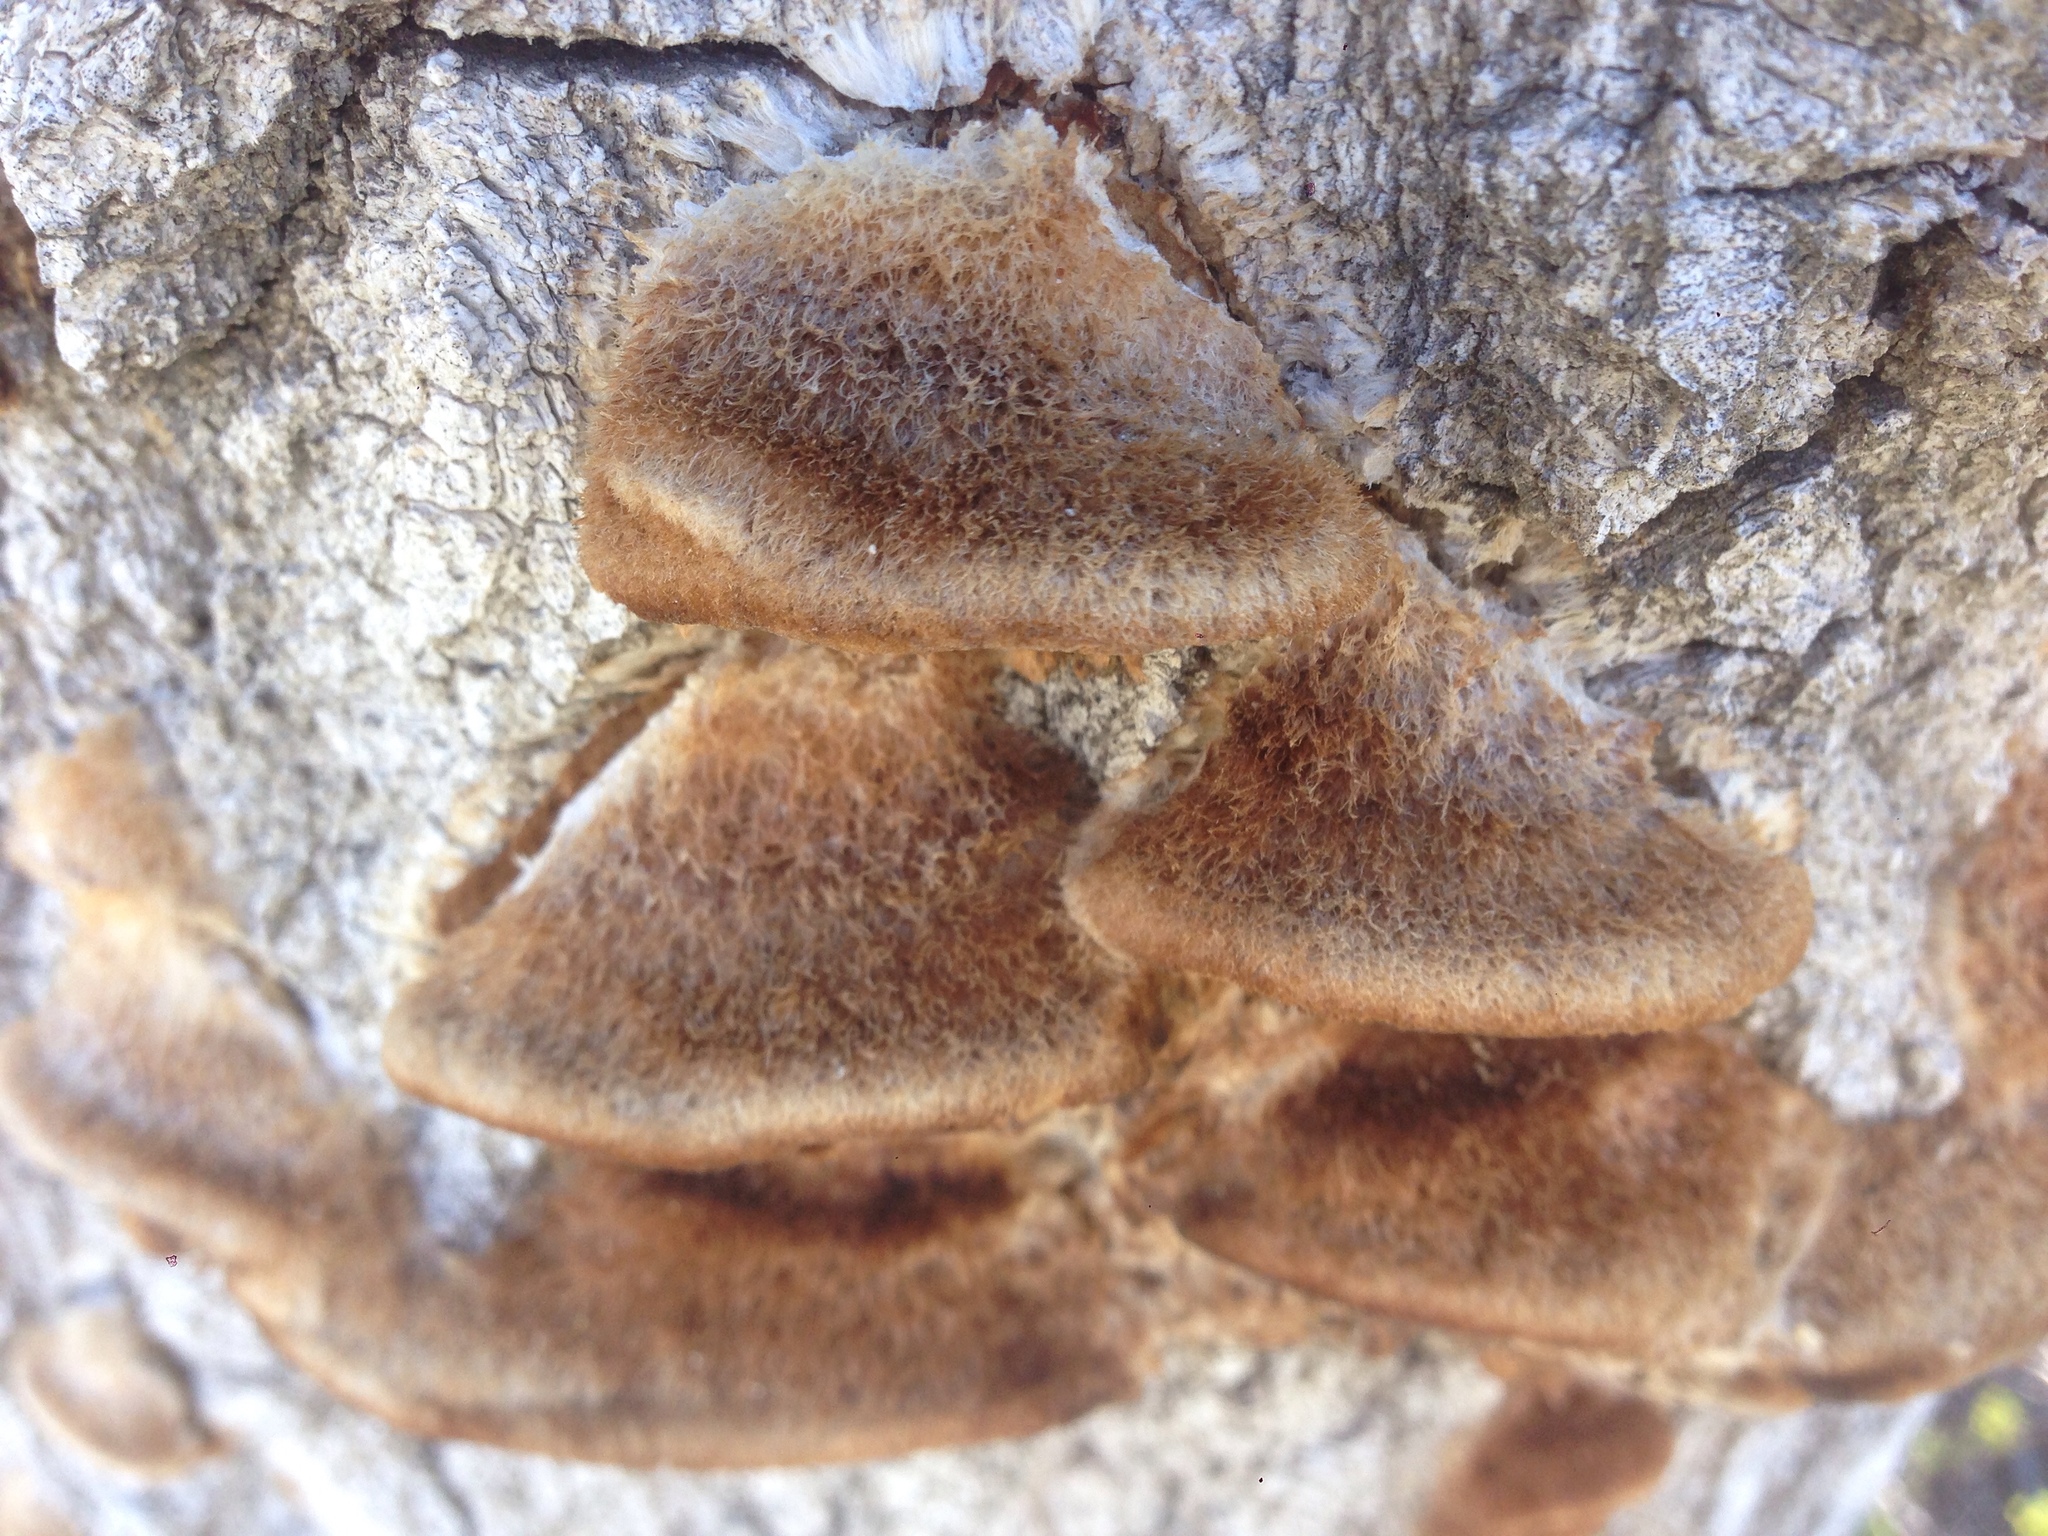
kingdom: Fungi
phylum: Basidiomycota
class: Agaricomycetes
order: Polyporales
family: Polyporaceae
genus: Coriolopsis
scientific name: Coriolopsis gallica
